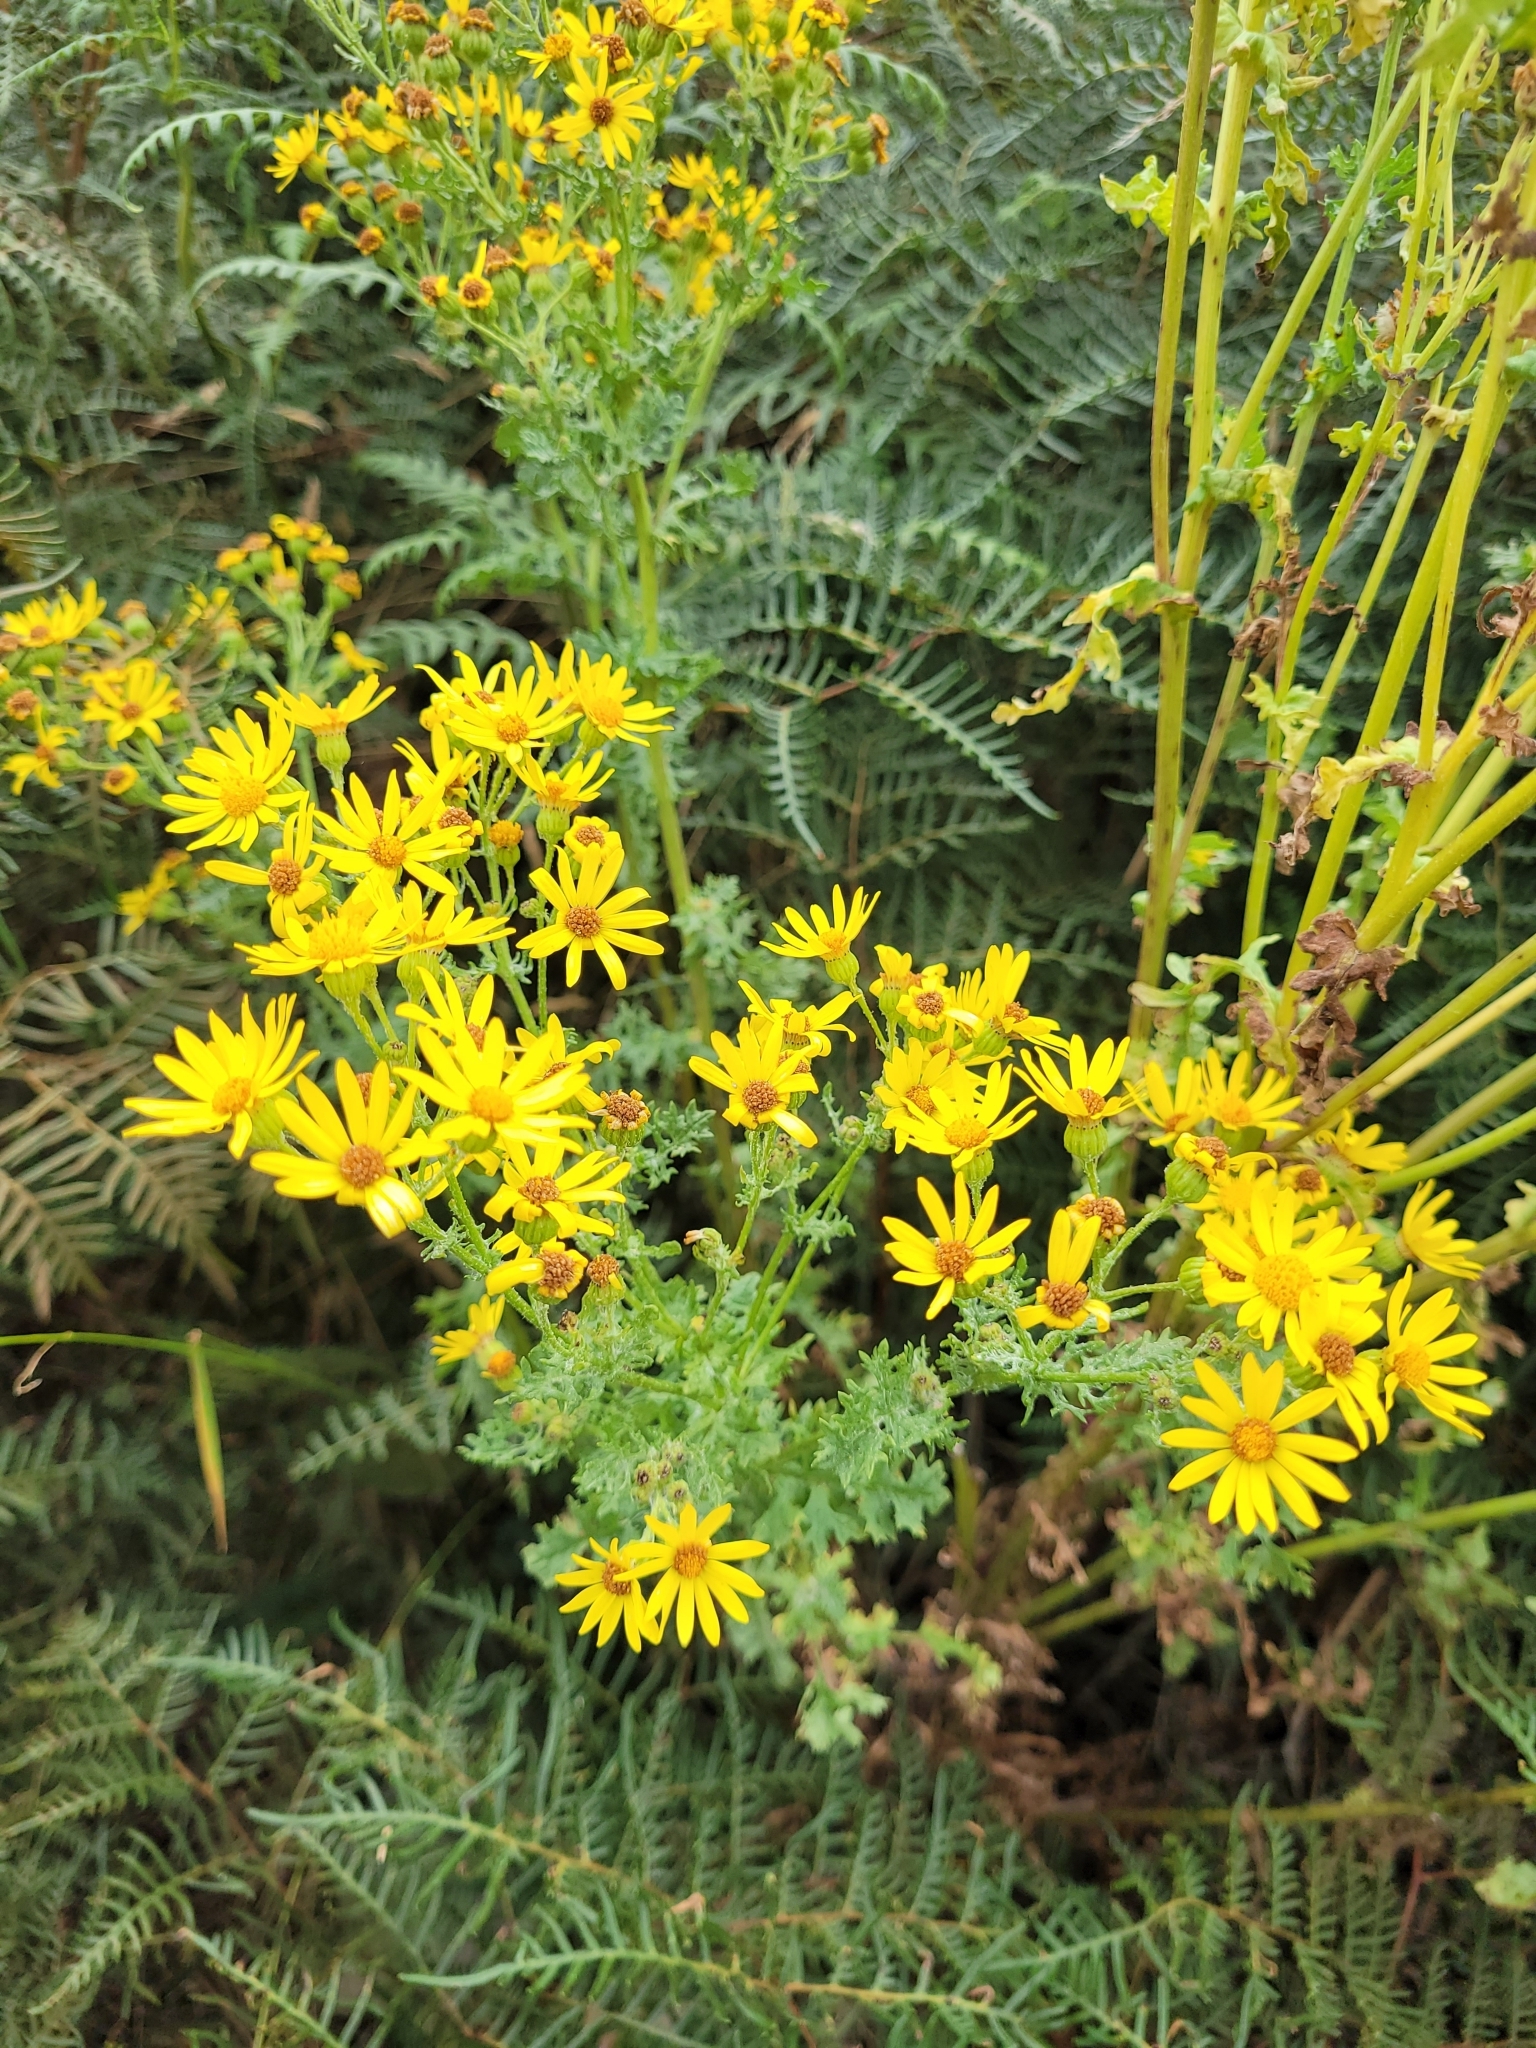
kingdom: Plantae
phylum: Tracheophyta
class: Magnoliopsida
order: Asterales
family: Asteraceae
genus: Jacobaea
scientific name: Jacobaea vulgaris
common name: Stinking willie
